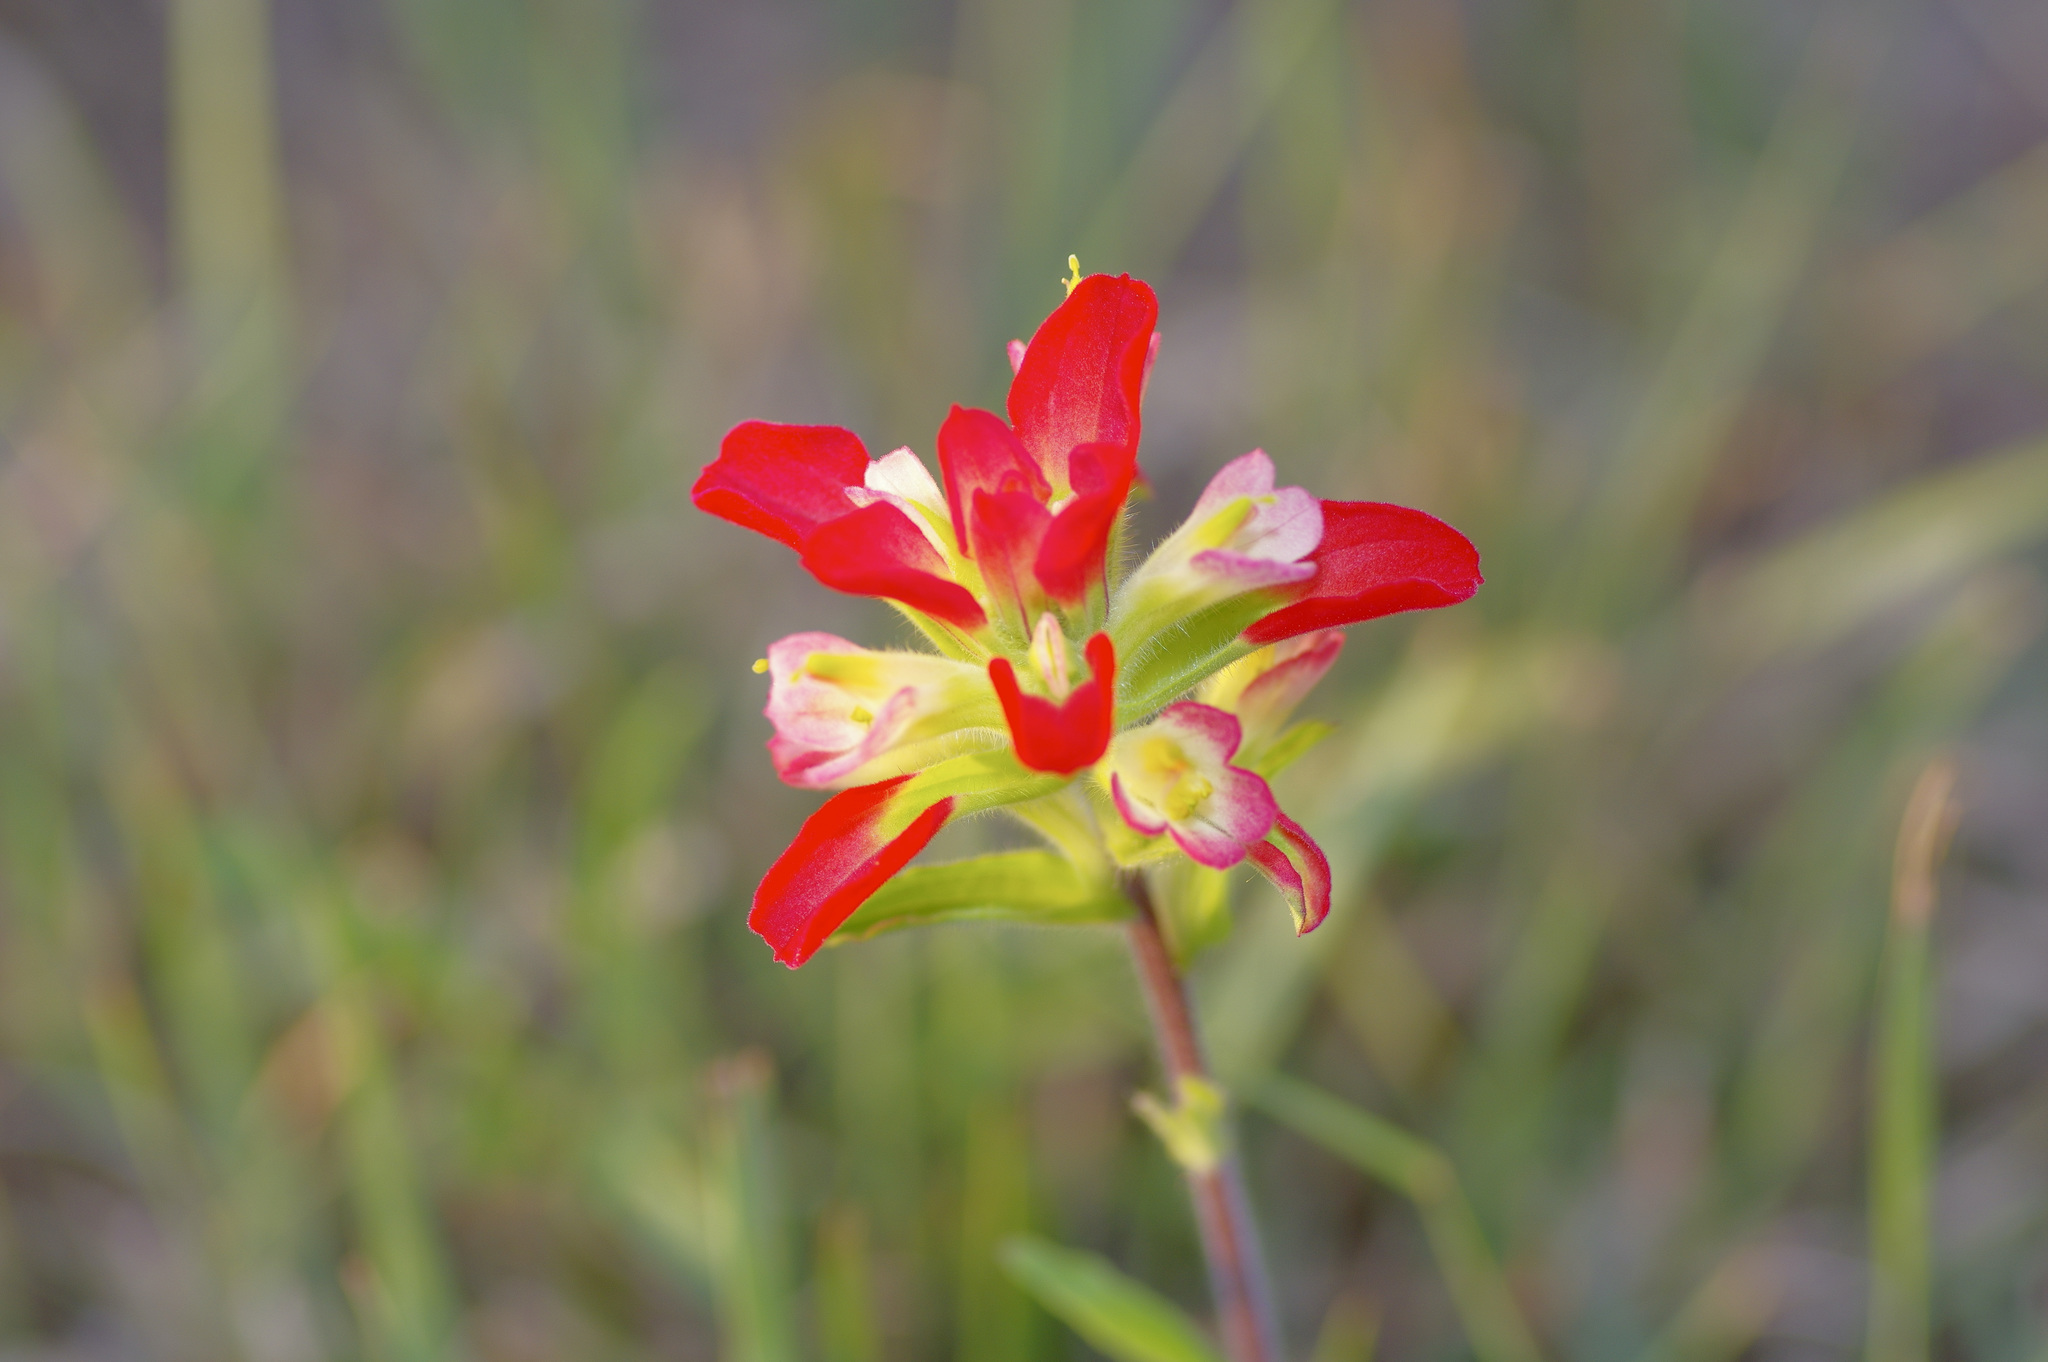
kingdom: Plantae
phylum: Tracheophyta
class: Magnoliopsida
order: Lamiales
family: Orobanchaceae
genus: Castilleja
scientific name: Castilleja indivisa
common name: Texas paintbrush
